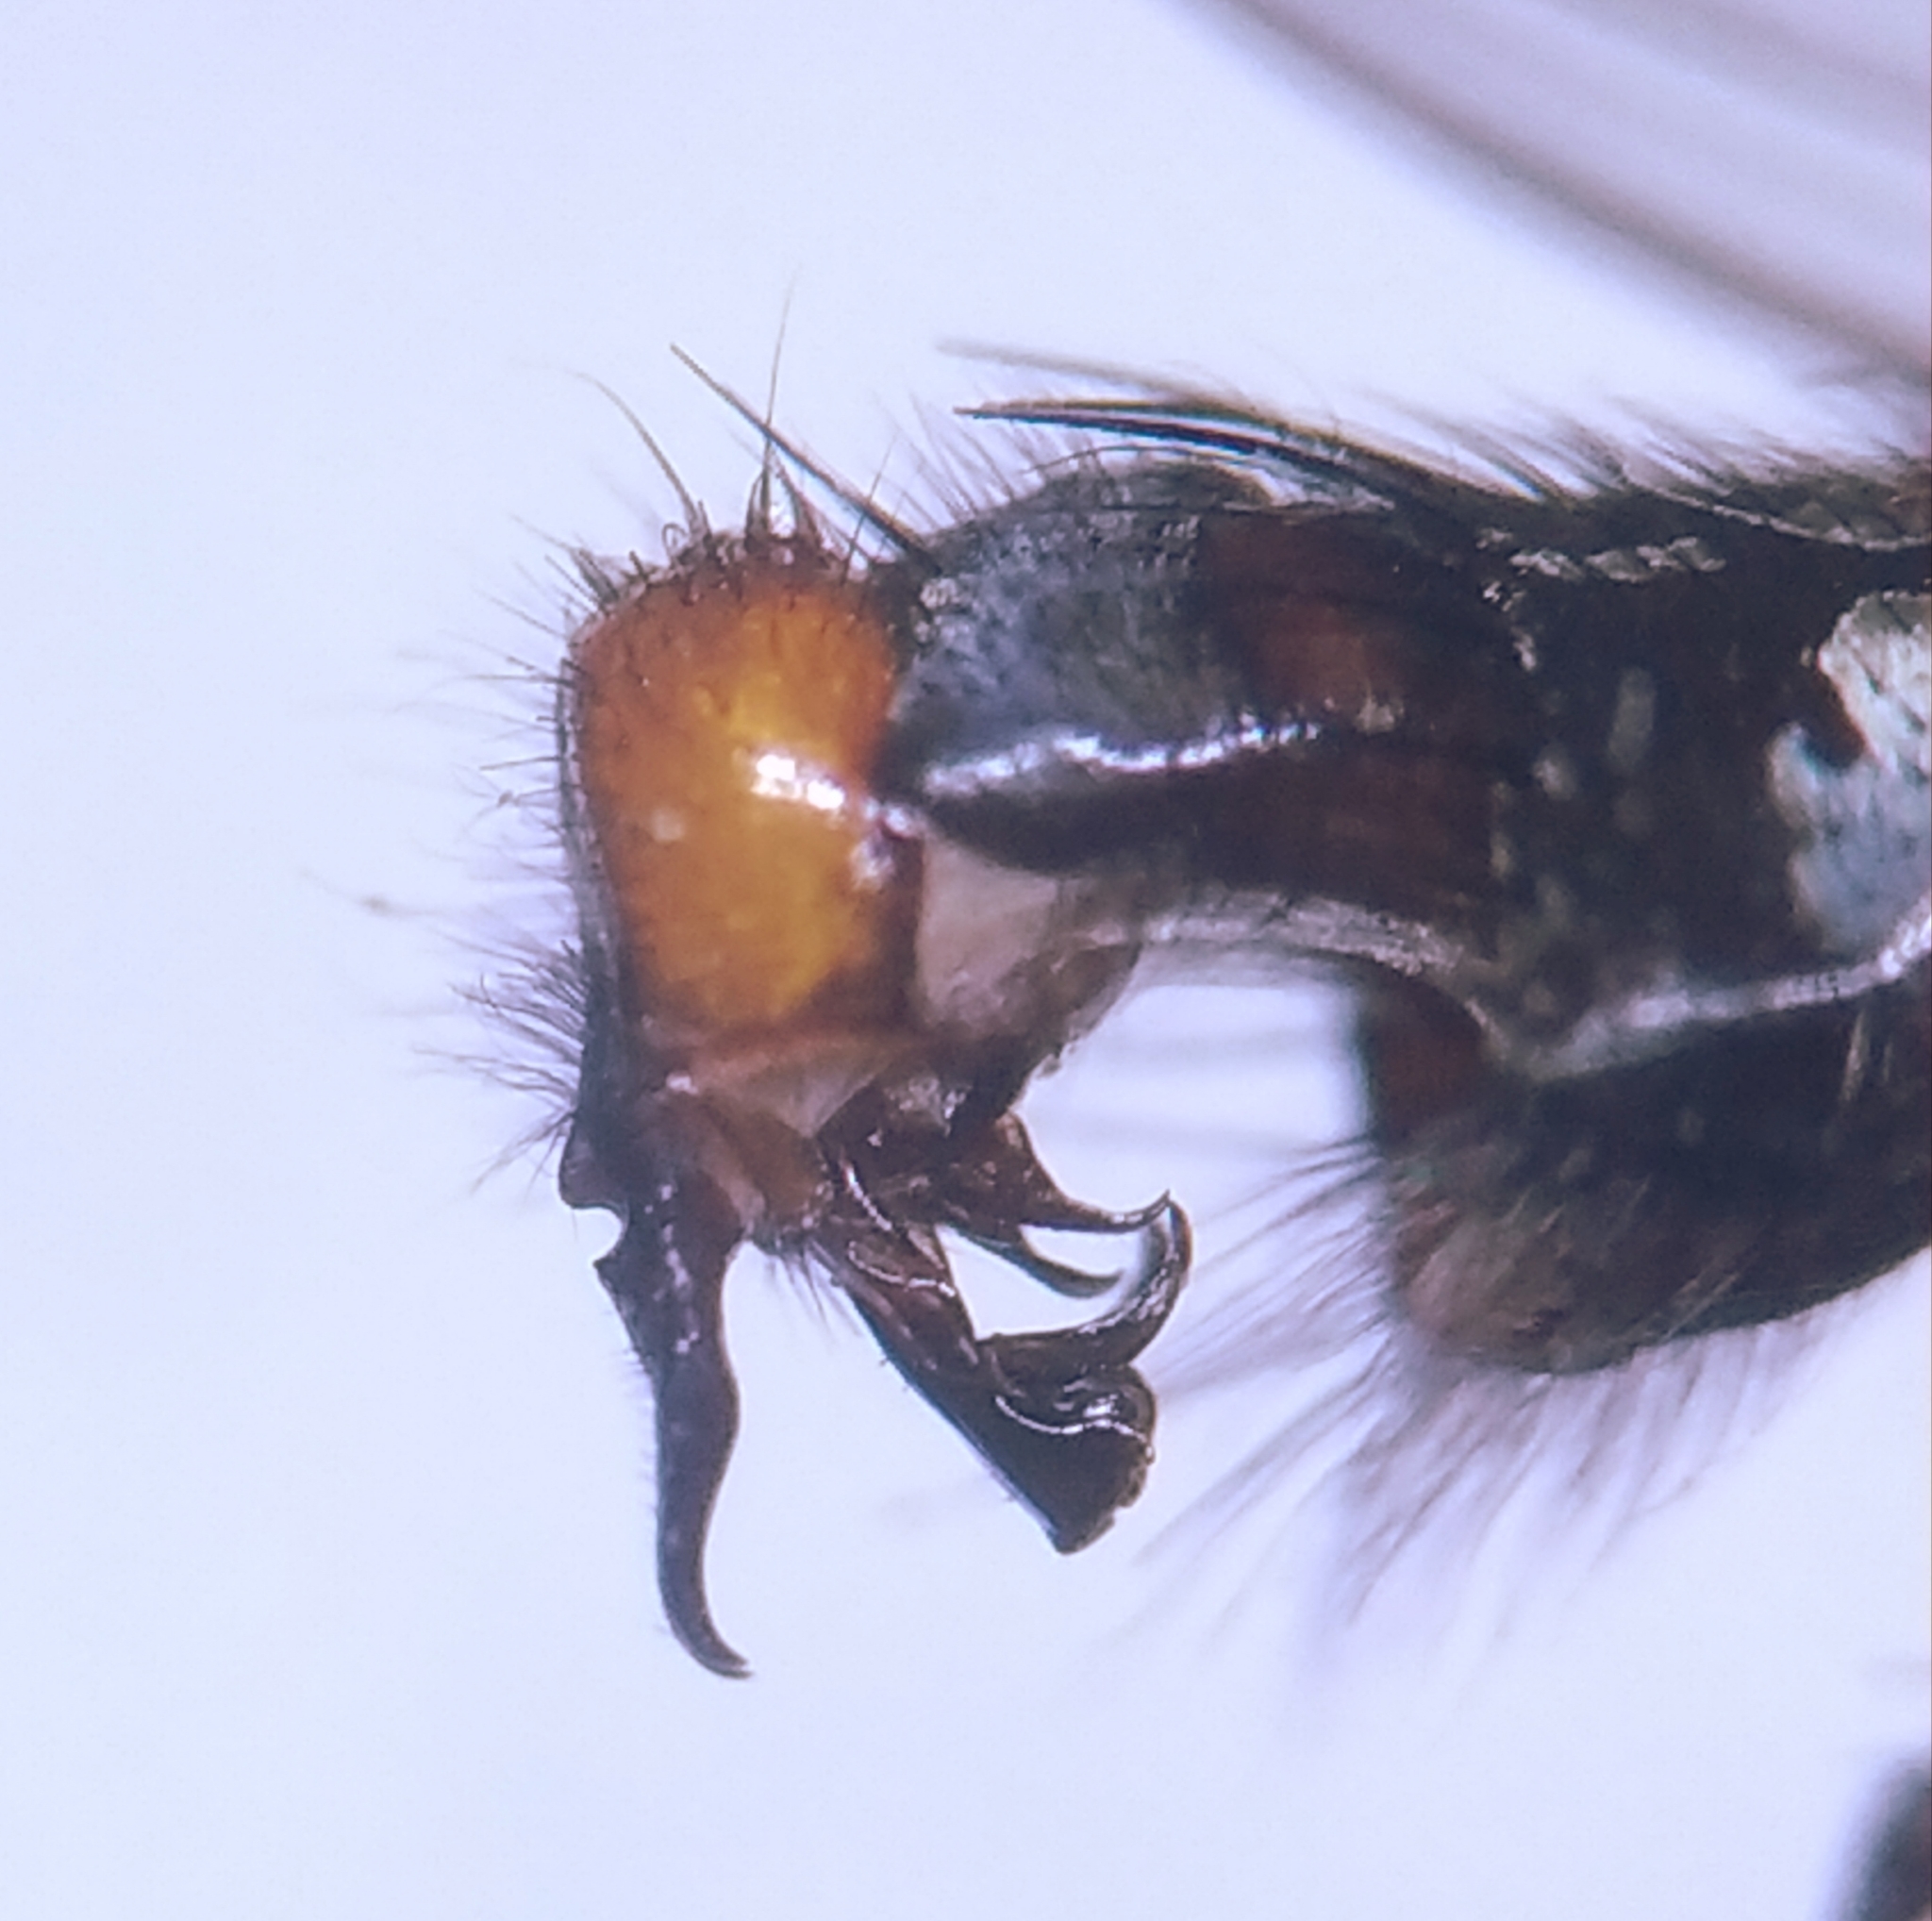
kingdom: Animalia
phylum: Arthropoda
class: Insecta
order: Diptera
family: Sarcophagidae
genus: Sarcophaga
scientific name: Sarcophaga africa
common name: Flesh fly
